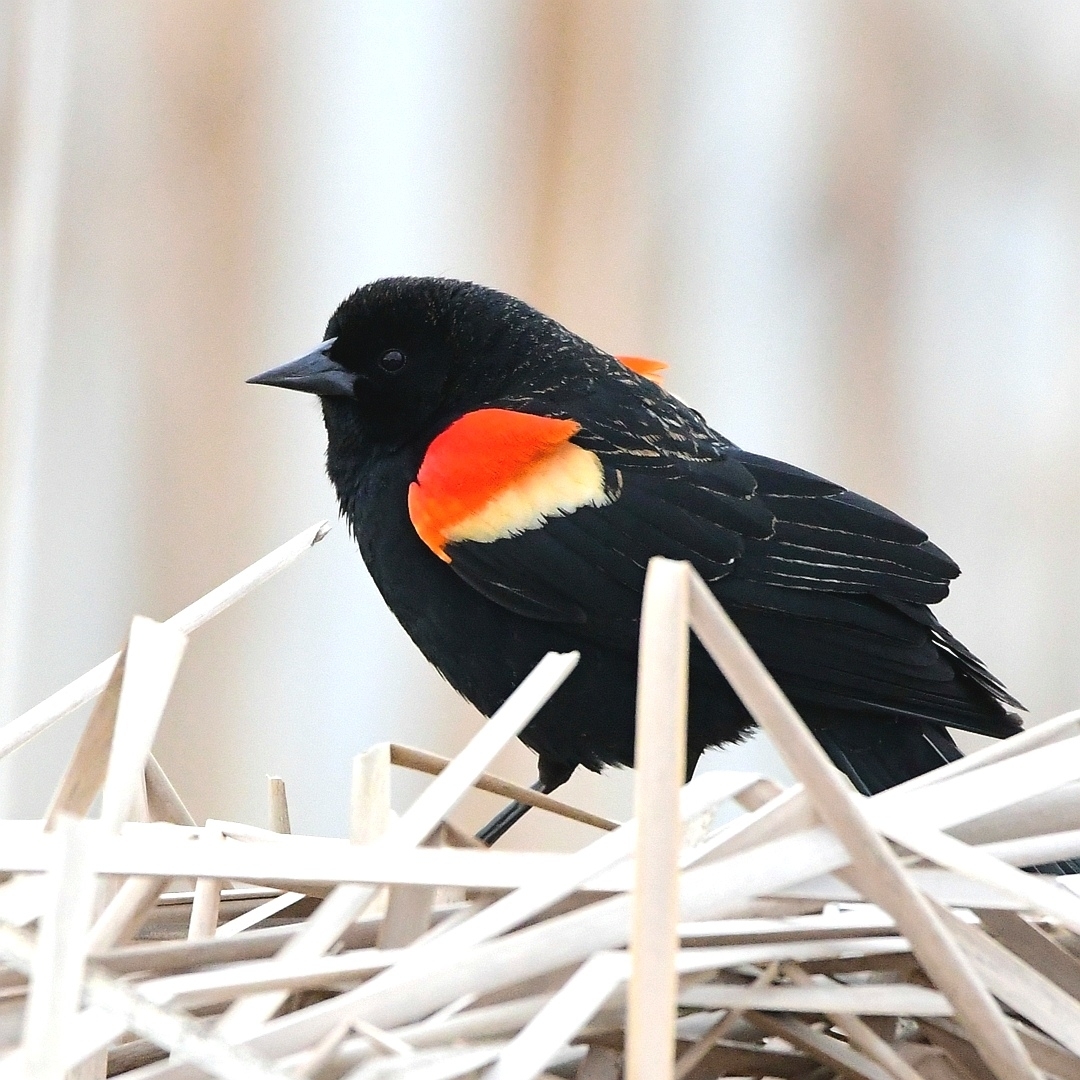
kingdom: Animalia
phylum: Chordata
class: Aves
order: Passeriformes
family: Icteridae
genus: Agelaius
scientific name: Agelaius phoeniceus
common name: Red-winged blackbird
